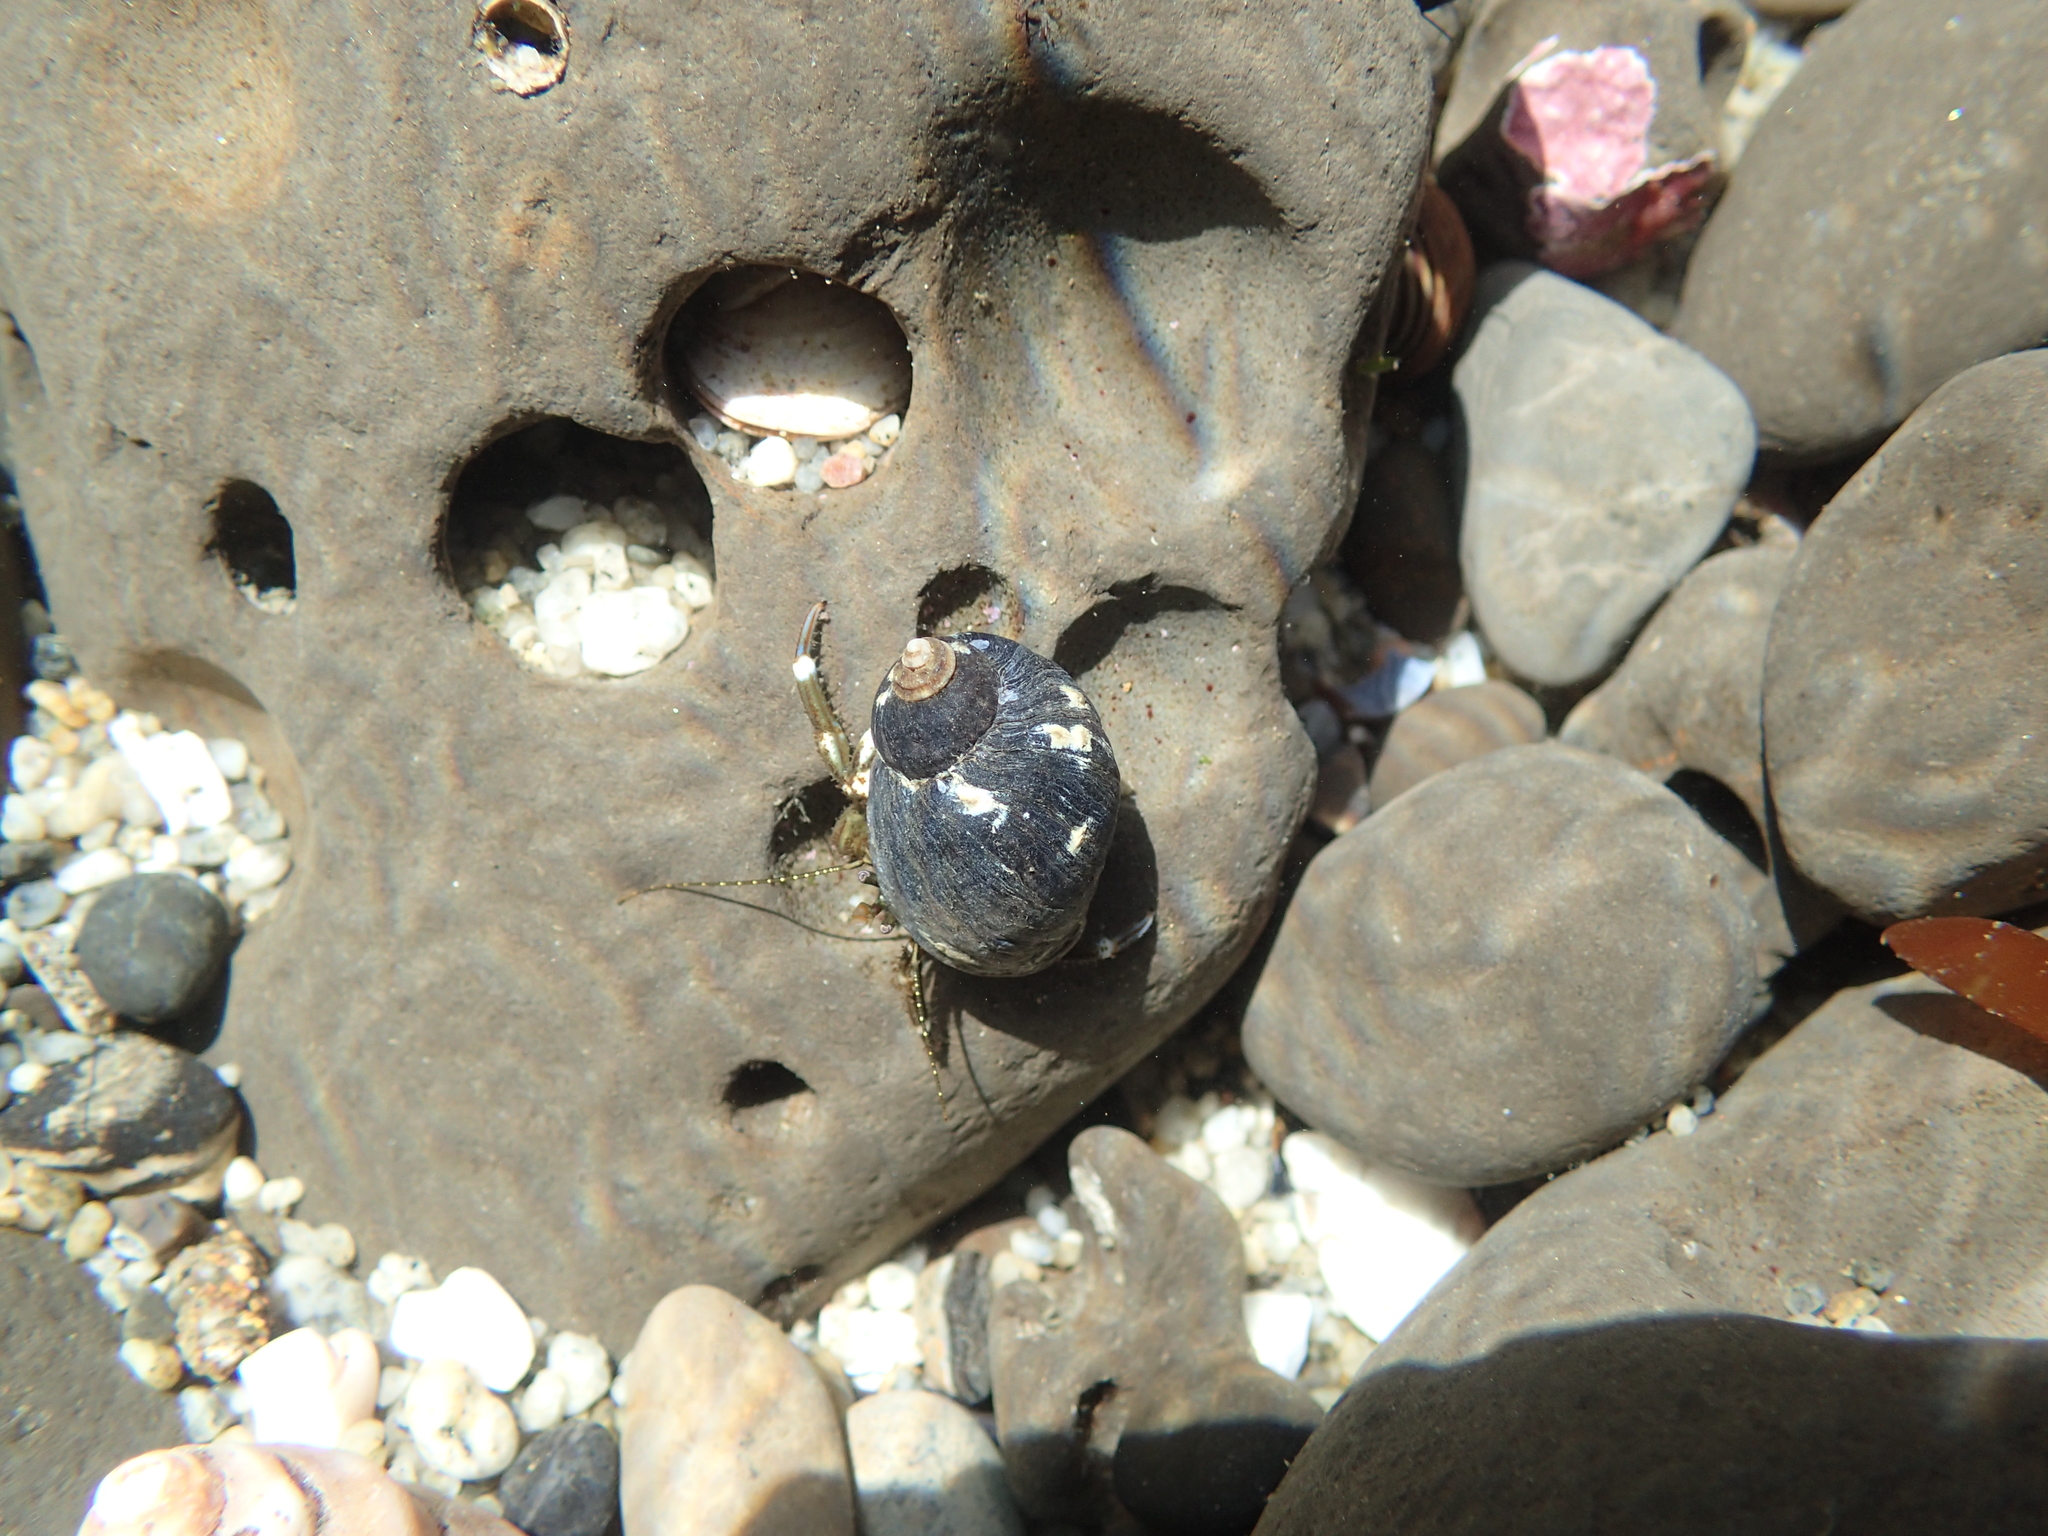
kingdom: Animalia
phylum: Arthropoda
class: Malacostraca
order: Decapoda
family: Paguridae
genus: Pagurus
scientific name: Pagurus hirsutiusculus
